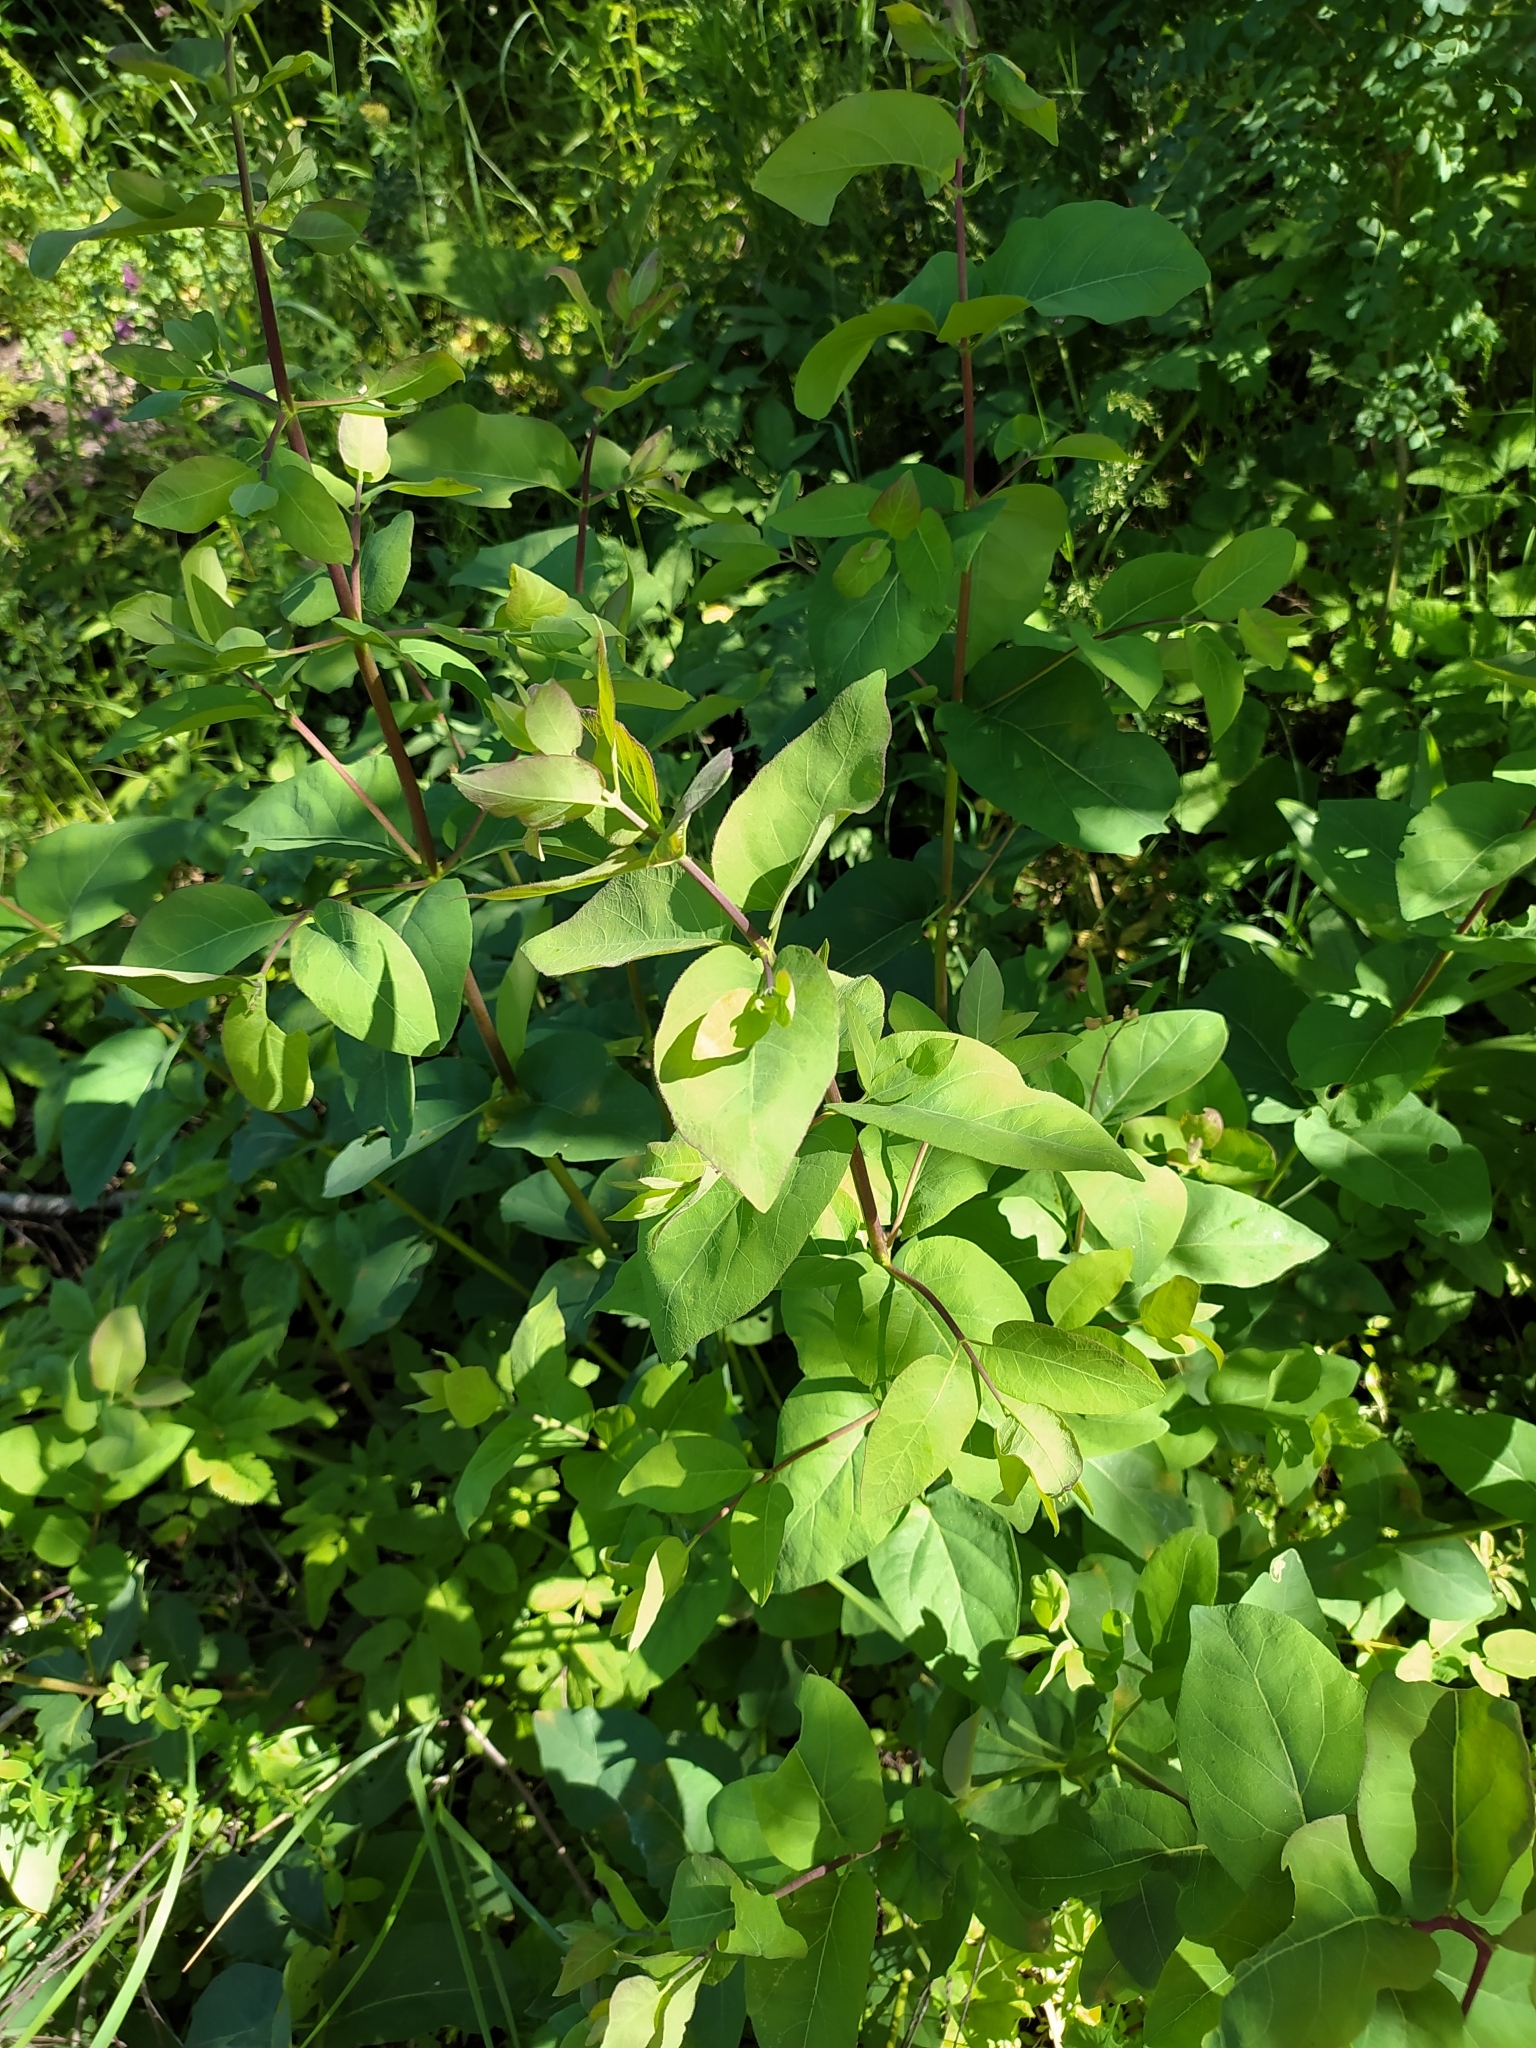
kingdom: Plantae
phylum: Tracheophyta
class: Magnoliopsida
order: Dipsacales
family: Caprifoliaceae
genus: Lonicera
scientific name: Lonicera tatarica
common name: Tatarian honeysuckle
